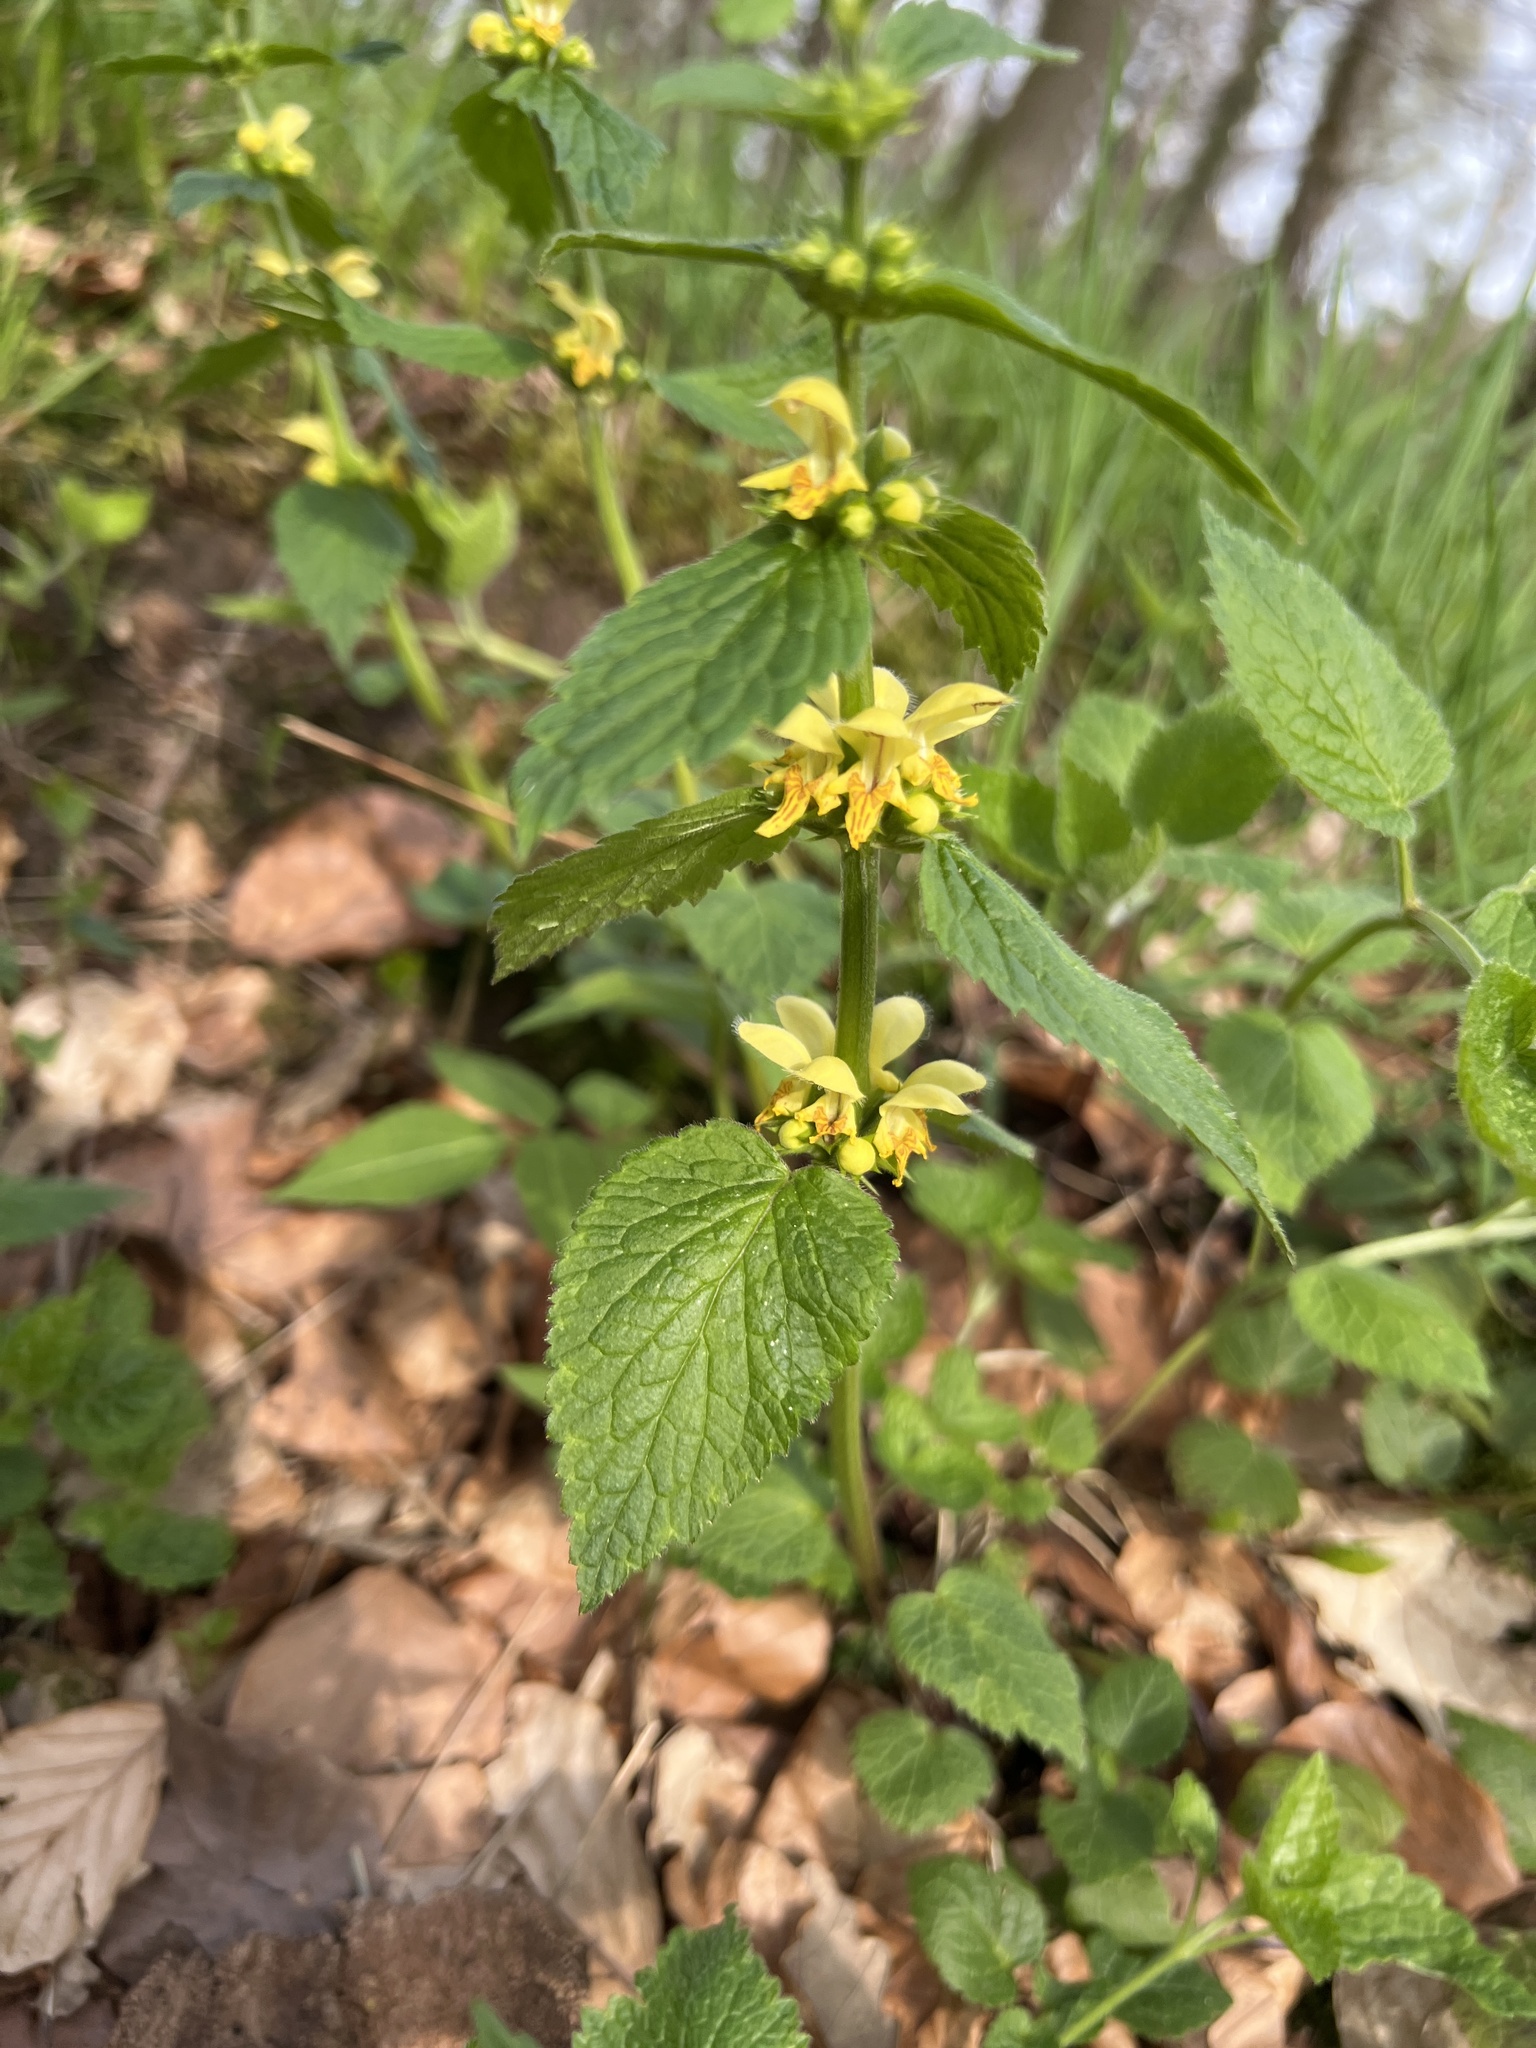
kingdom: Plantae
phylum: Tracheophyta
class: Magnoliopsida
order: Lamiales
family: Lamiaceae
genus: Lamium
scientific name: Lamium galeobdolon
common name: Yellow archangel
